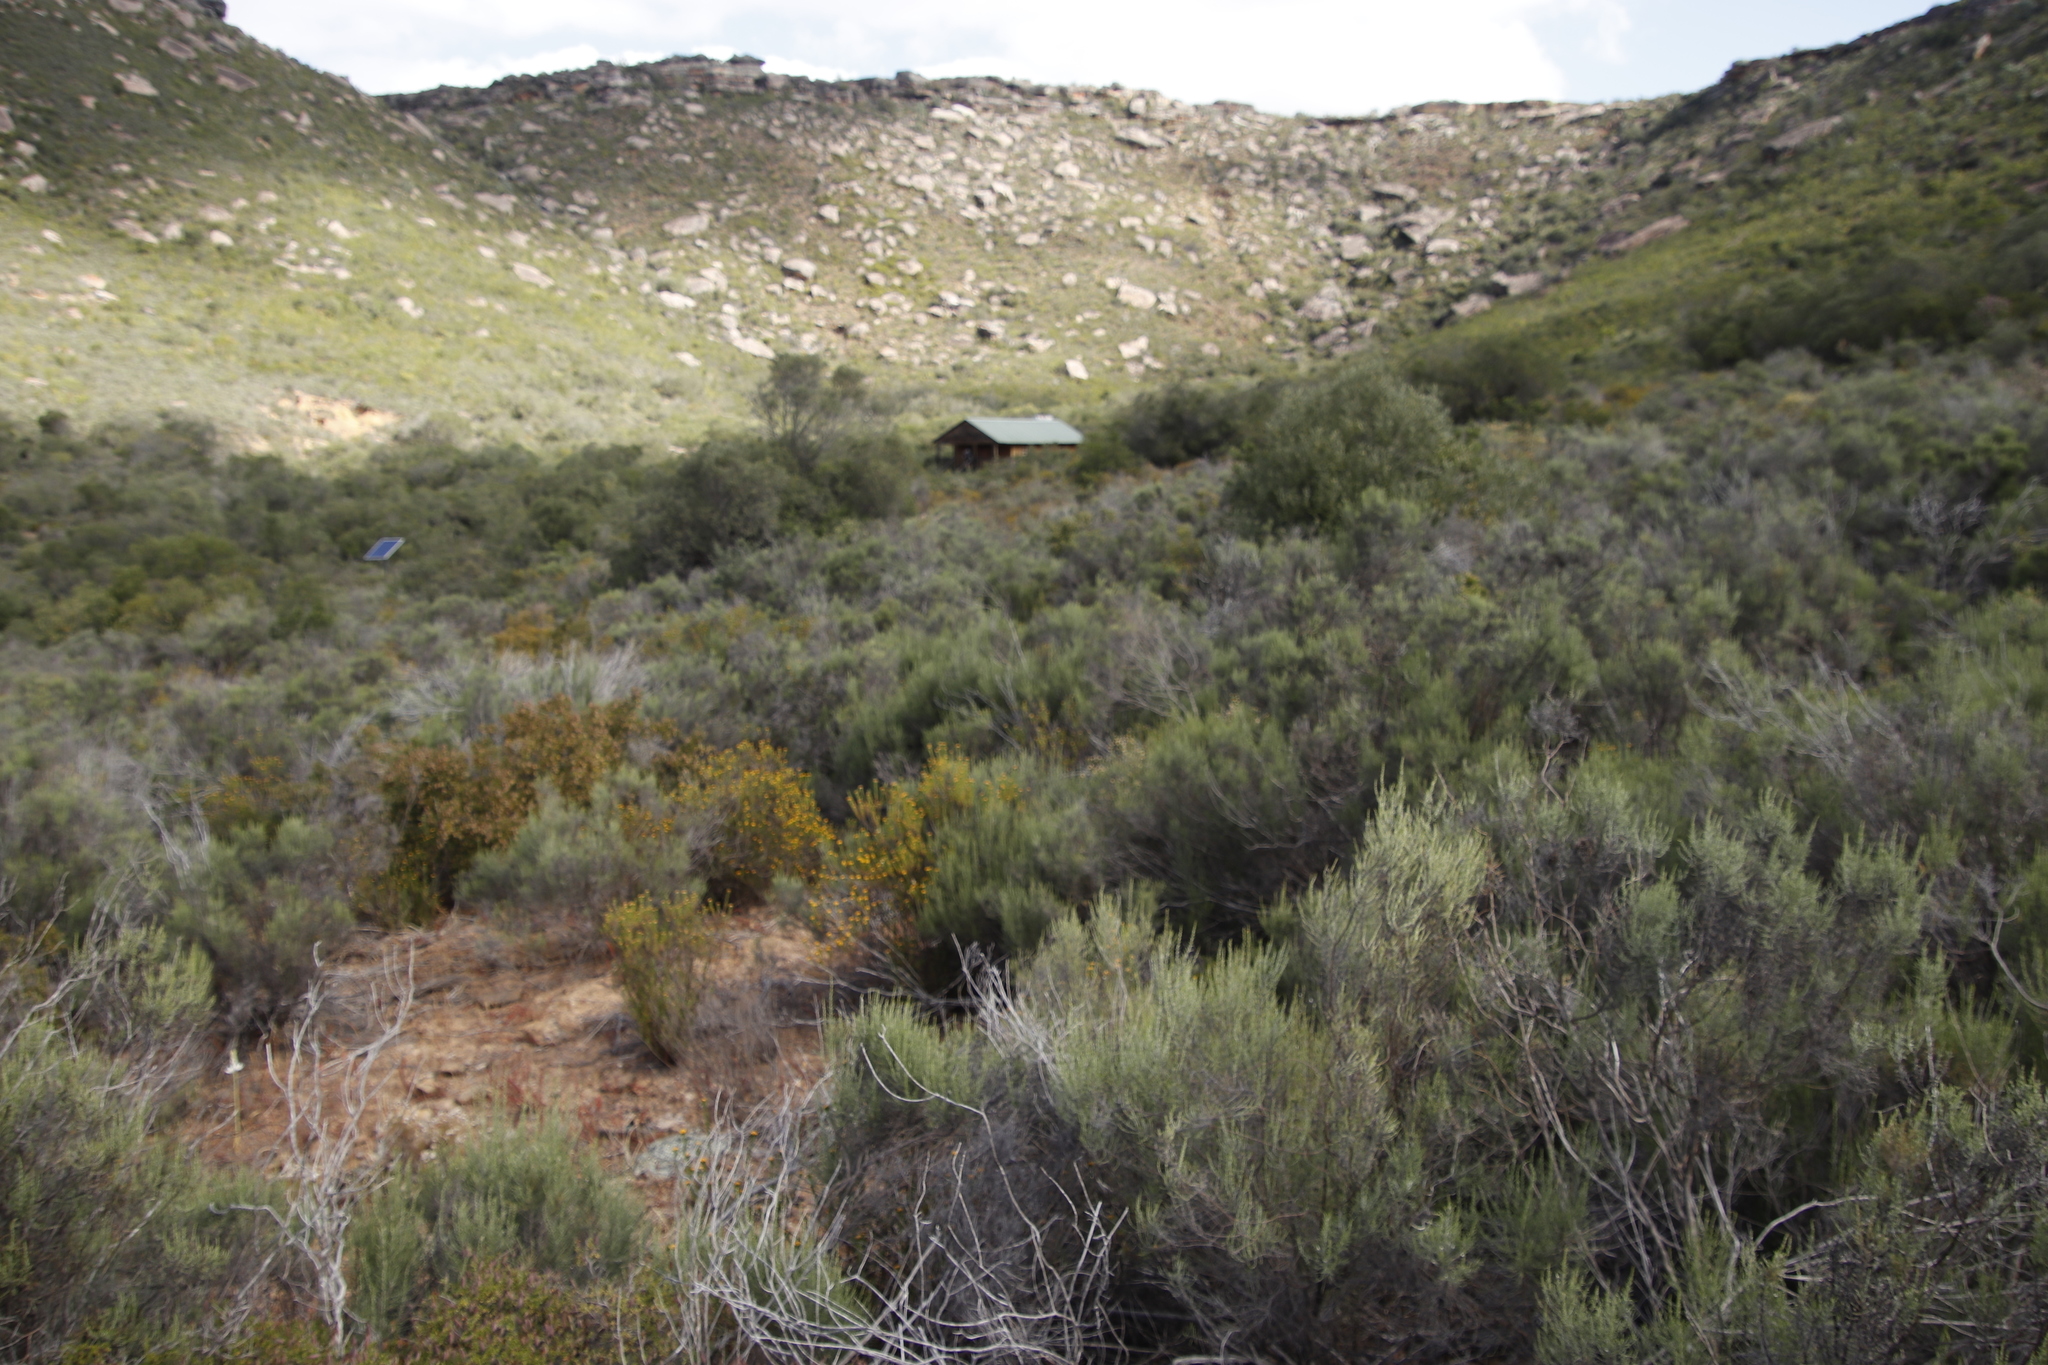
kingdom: Plantae
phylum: Tracheophyta
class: Magnoliopsida
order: Asterales
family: Asteraceae
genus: Dicerothamnus
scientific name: Dicerothamnus rhinocerotis
